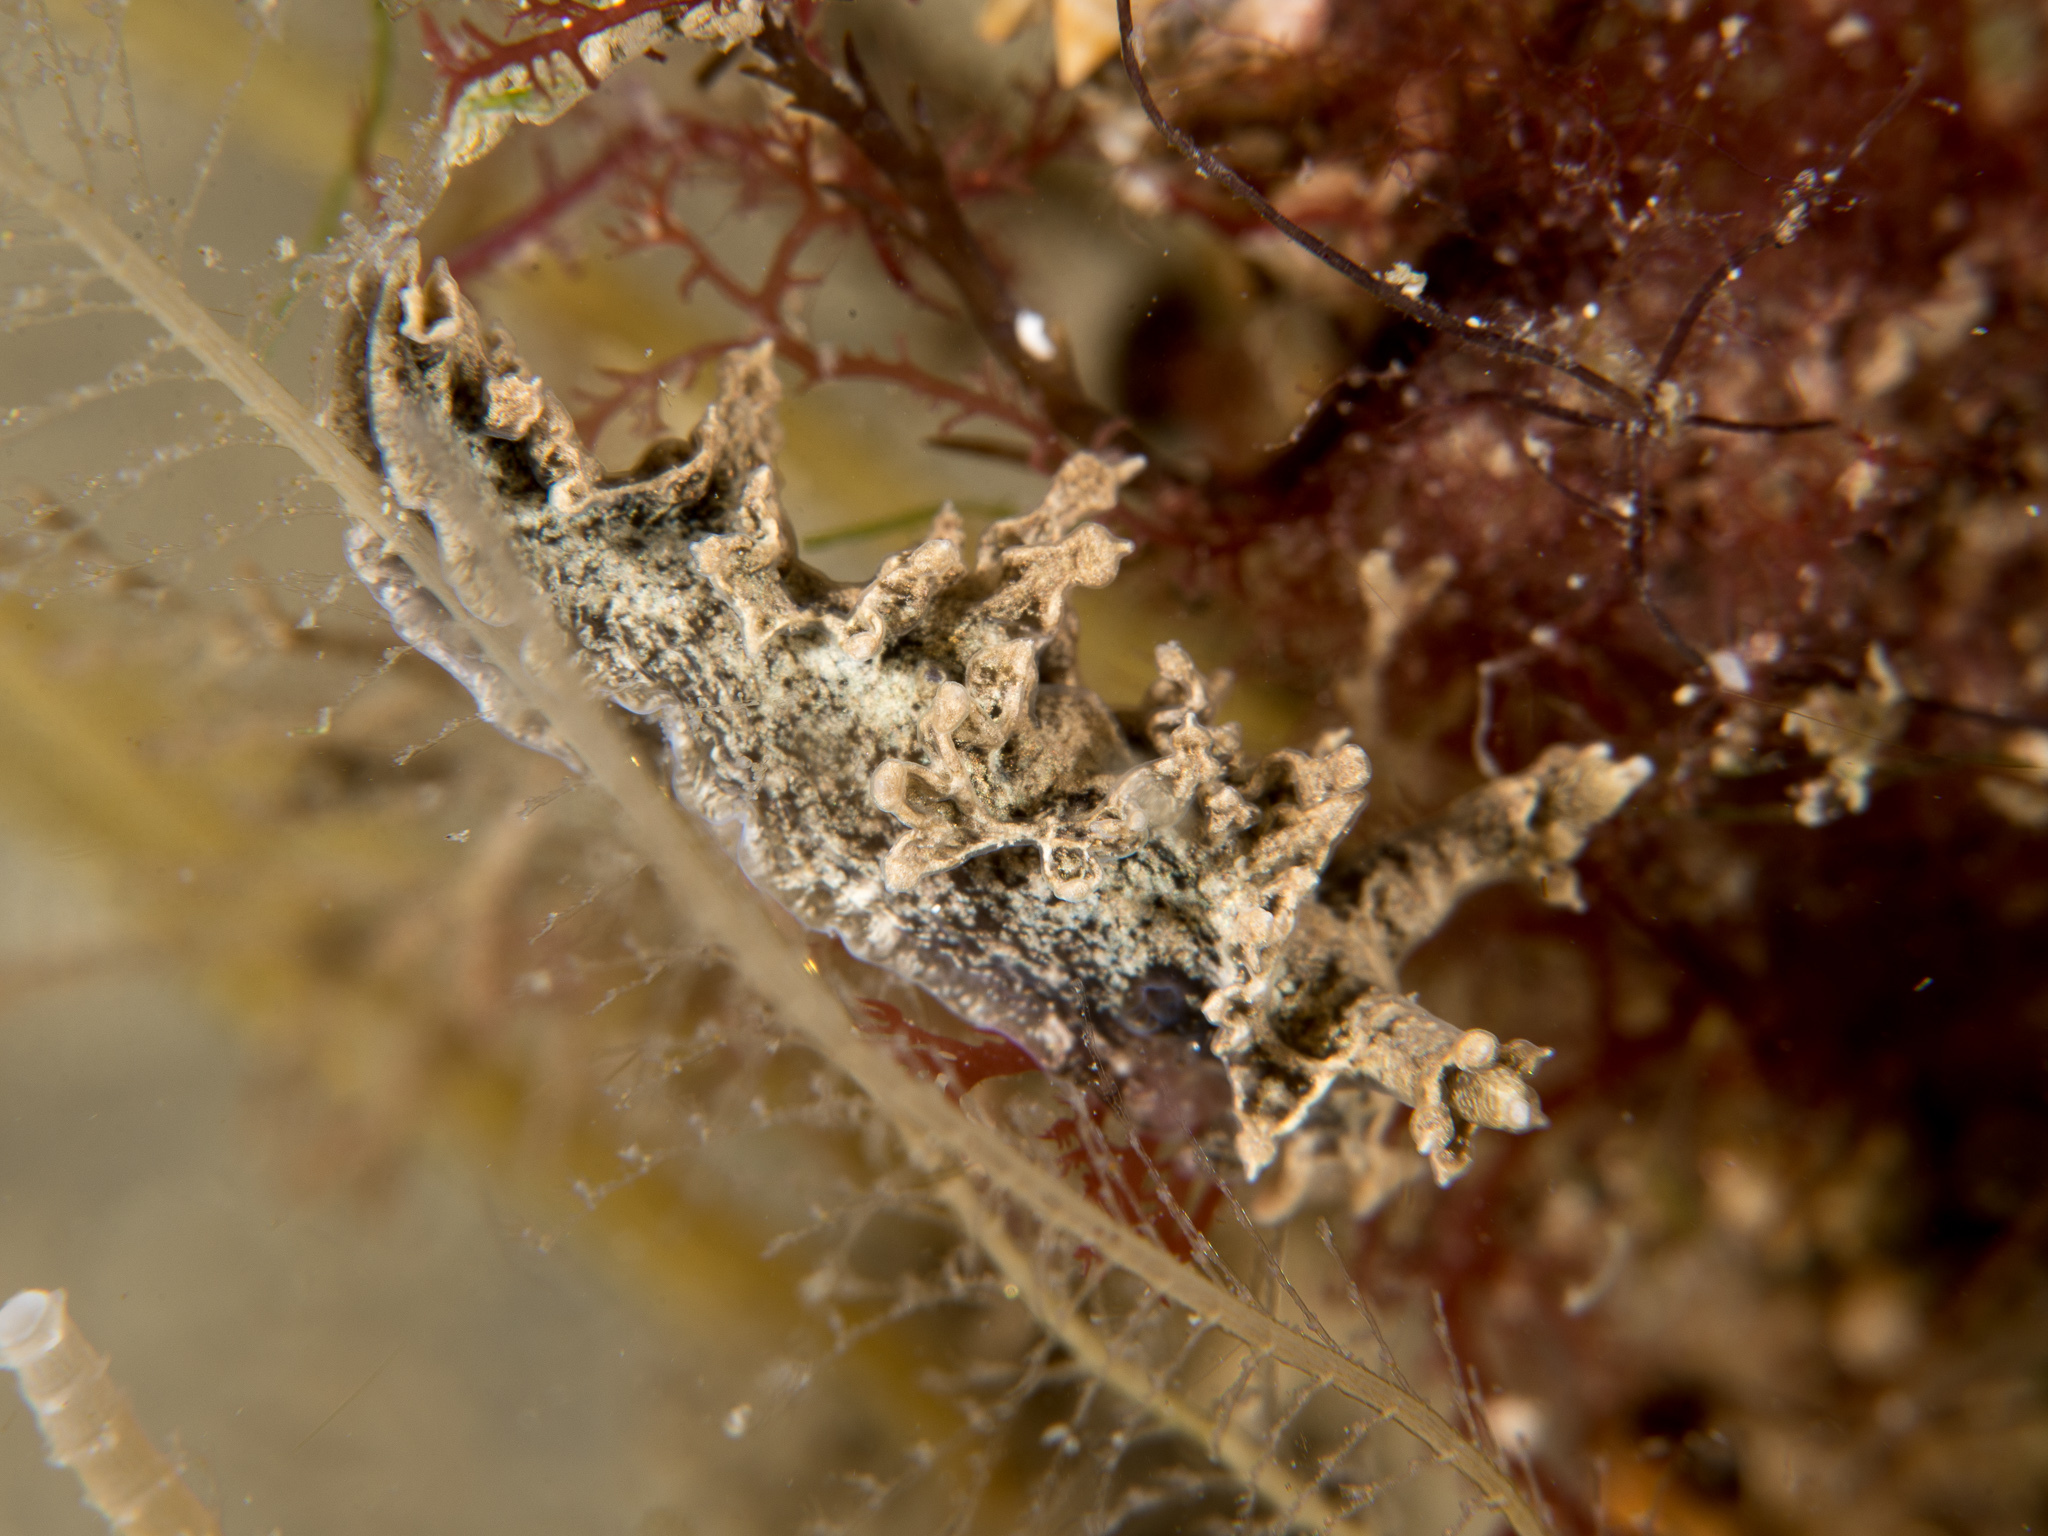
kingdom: Animalia
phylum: Mollusca
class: Gastropoda
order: Nudibranchia
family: Lomanotidae
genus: Lomanotus
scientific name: Lomanotus marmoratus
